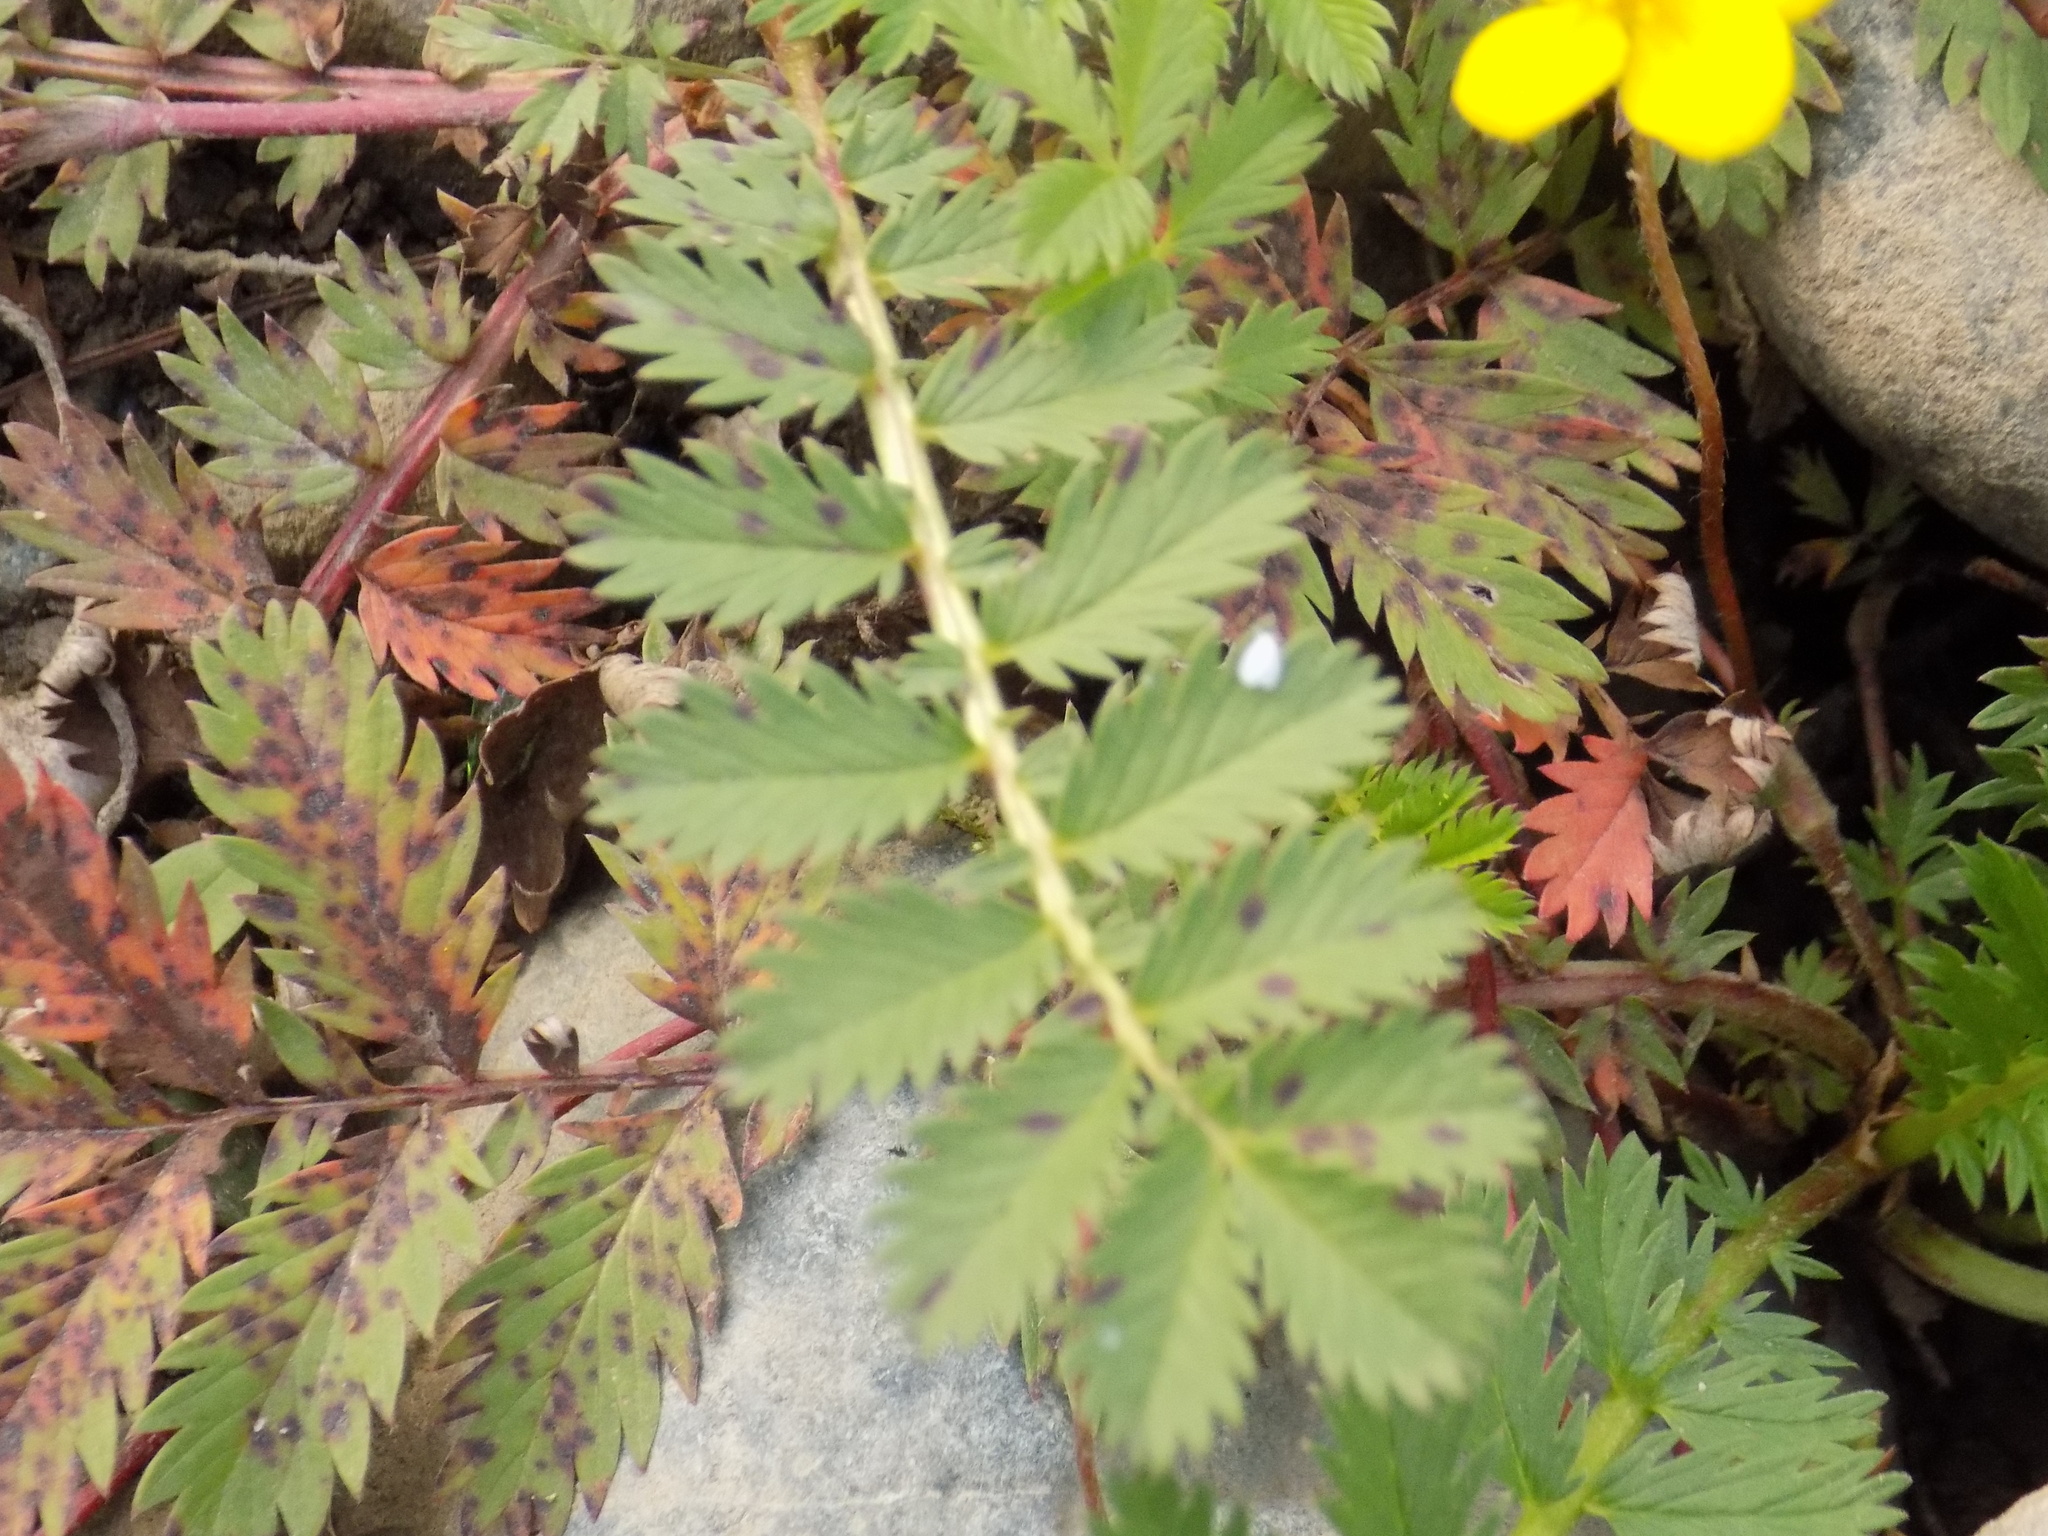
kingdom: Plantae
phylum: Tracheophyta
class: Magnoliopsida
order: Rosales
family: Rosaceae
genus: Argentina
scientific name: Argentina anserina
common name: Common silverweed
